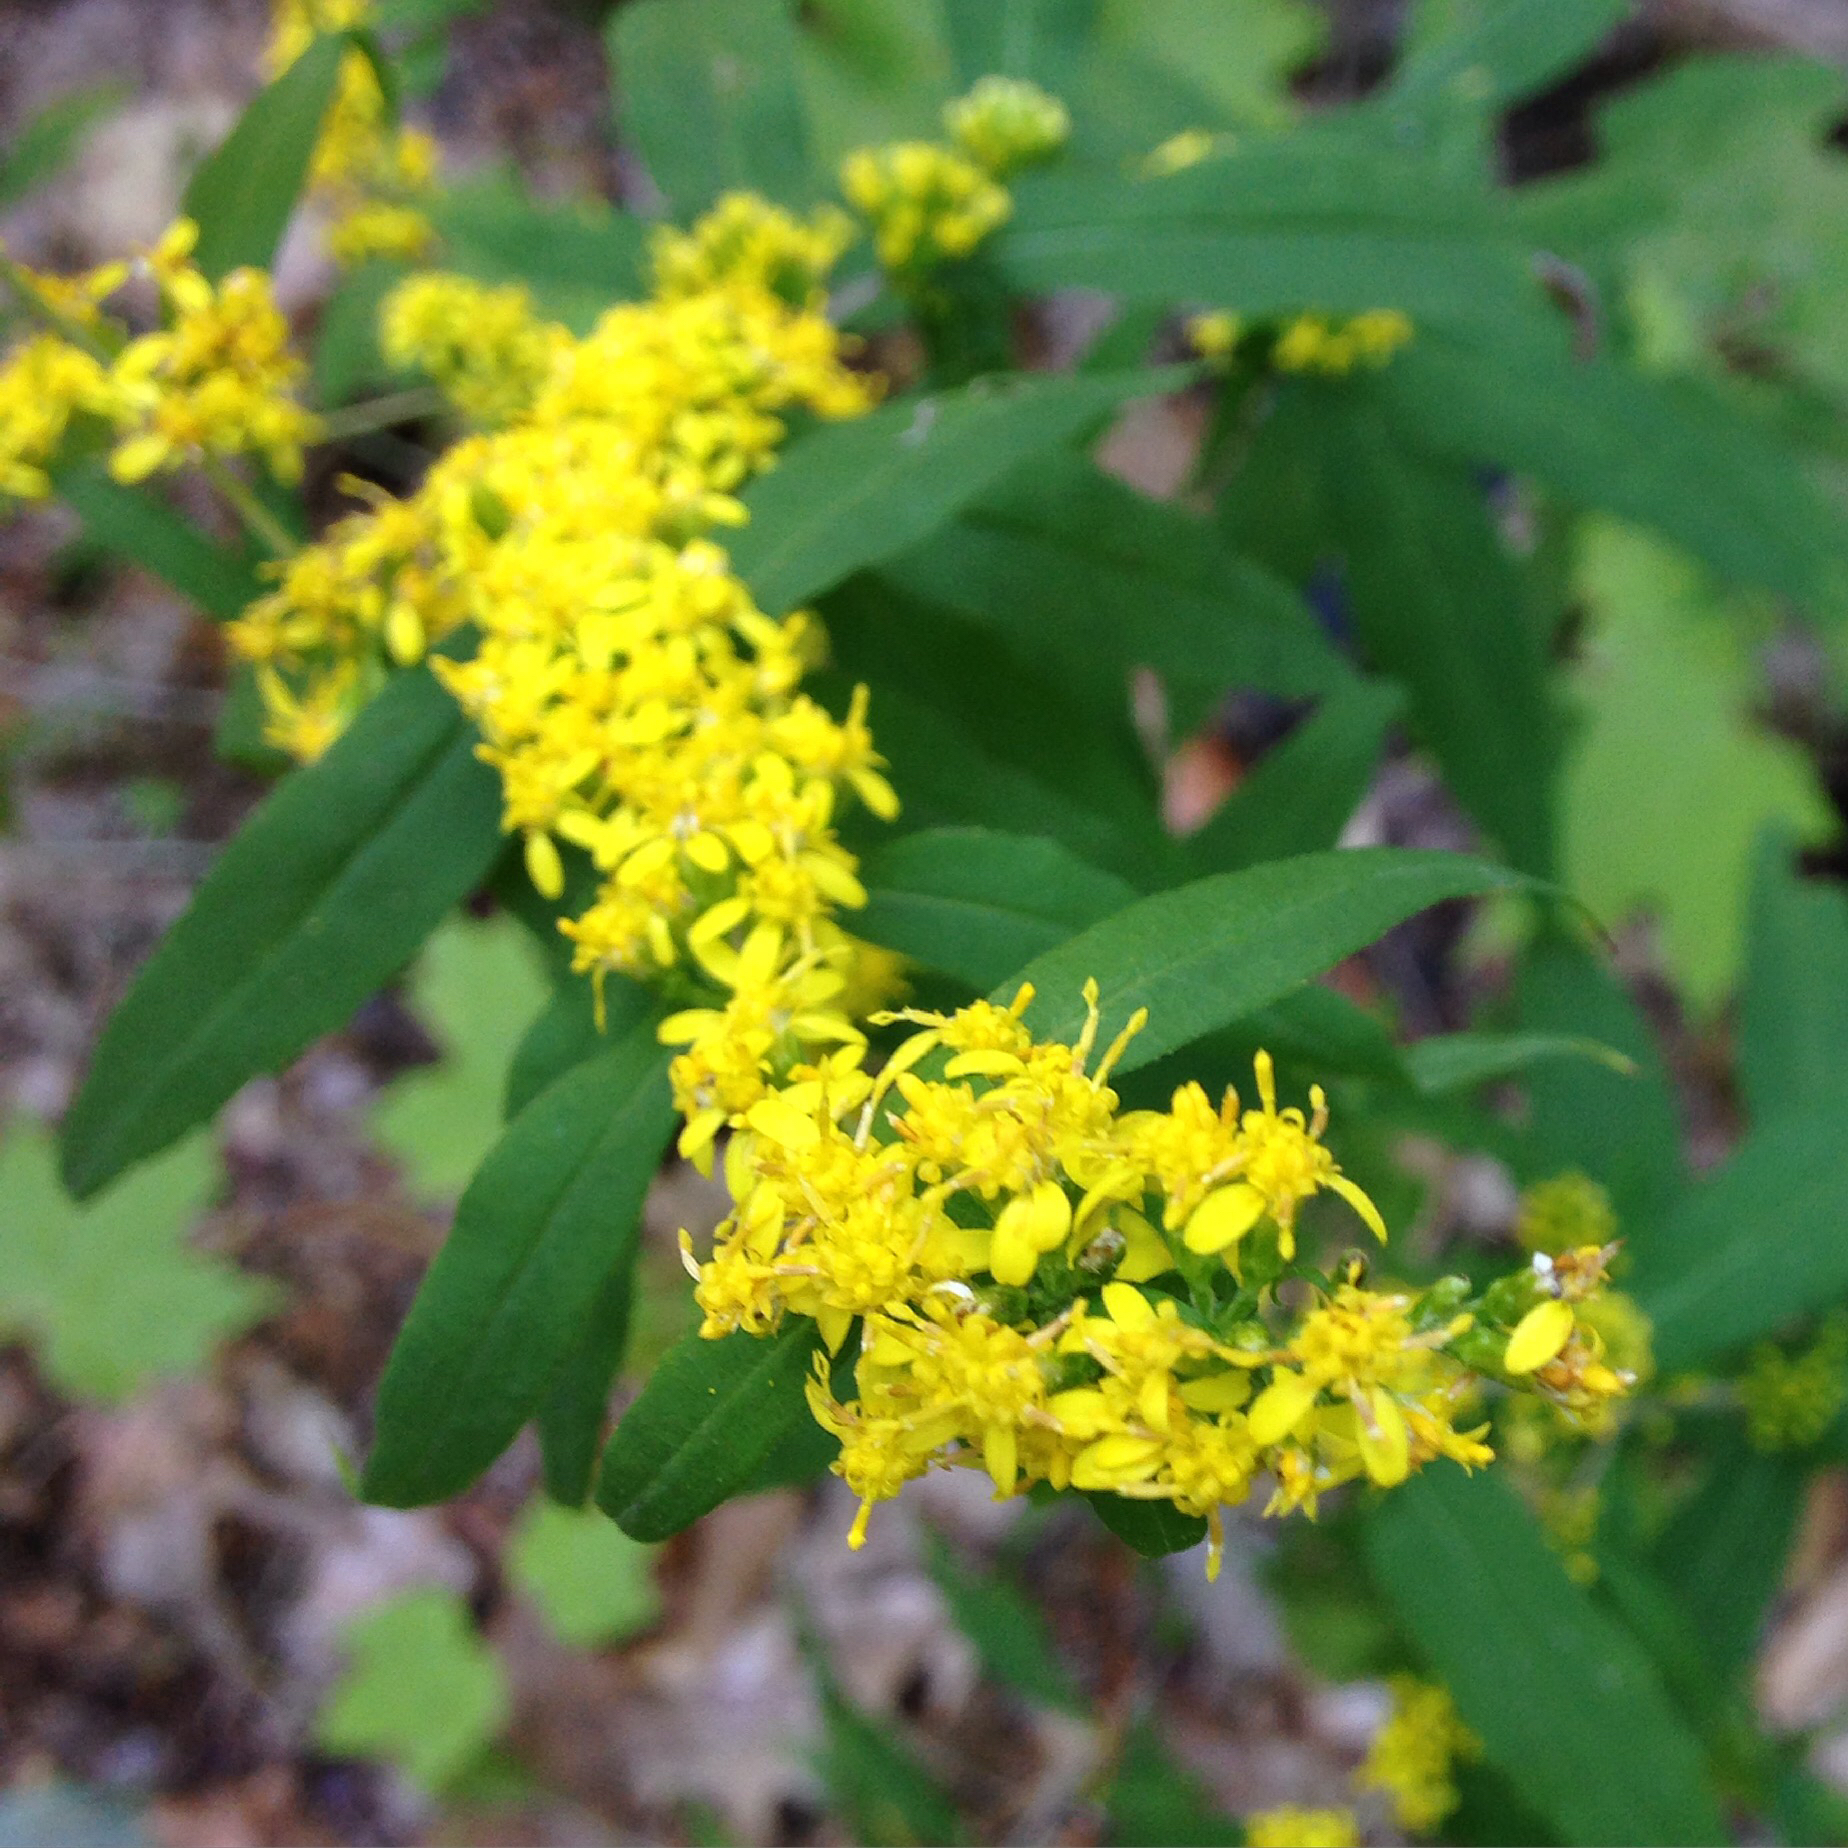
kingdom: Plantae
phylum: Tracheophyta
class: Magnoliopsida
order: Asterales
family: Asteraceae
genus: Solidago
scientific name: Solidago caesia
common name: Woodland goldenrod
